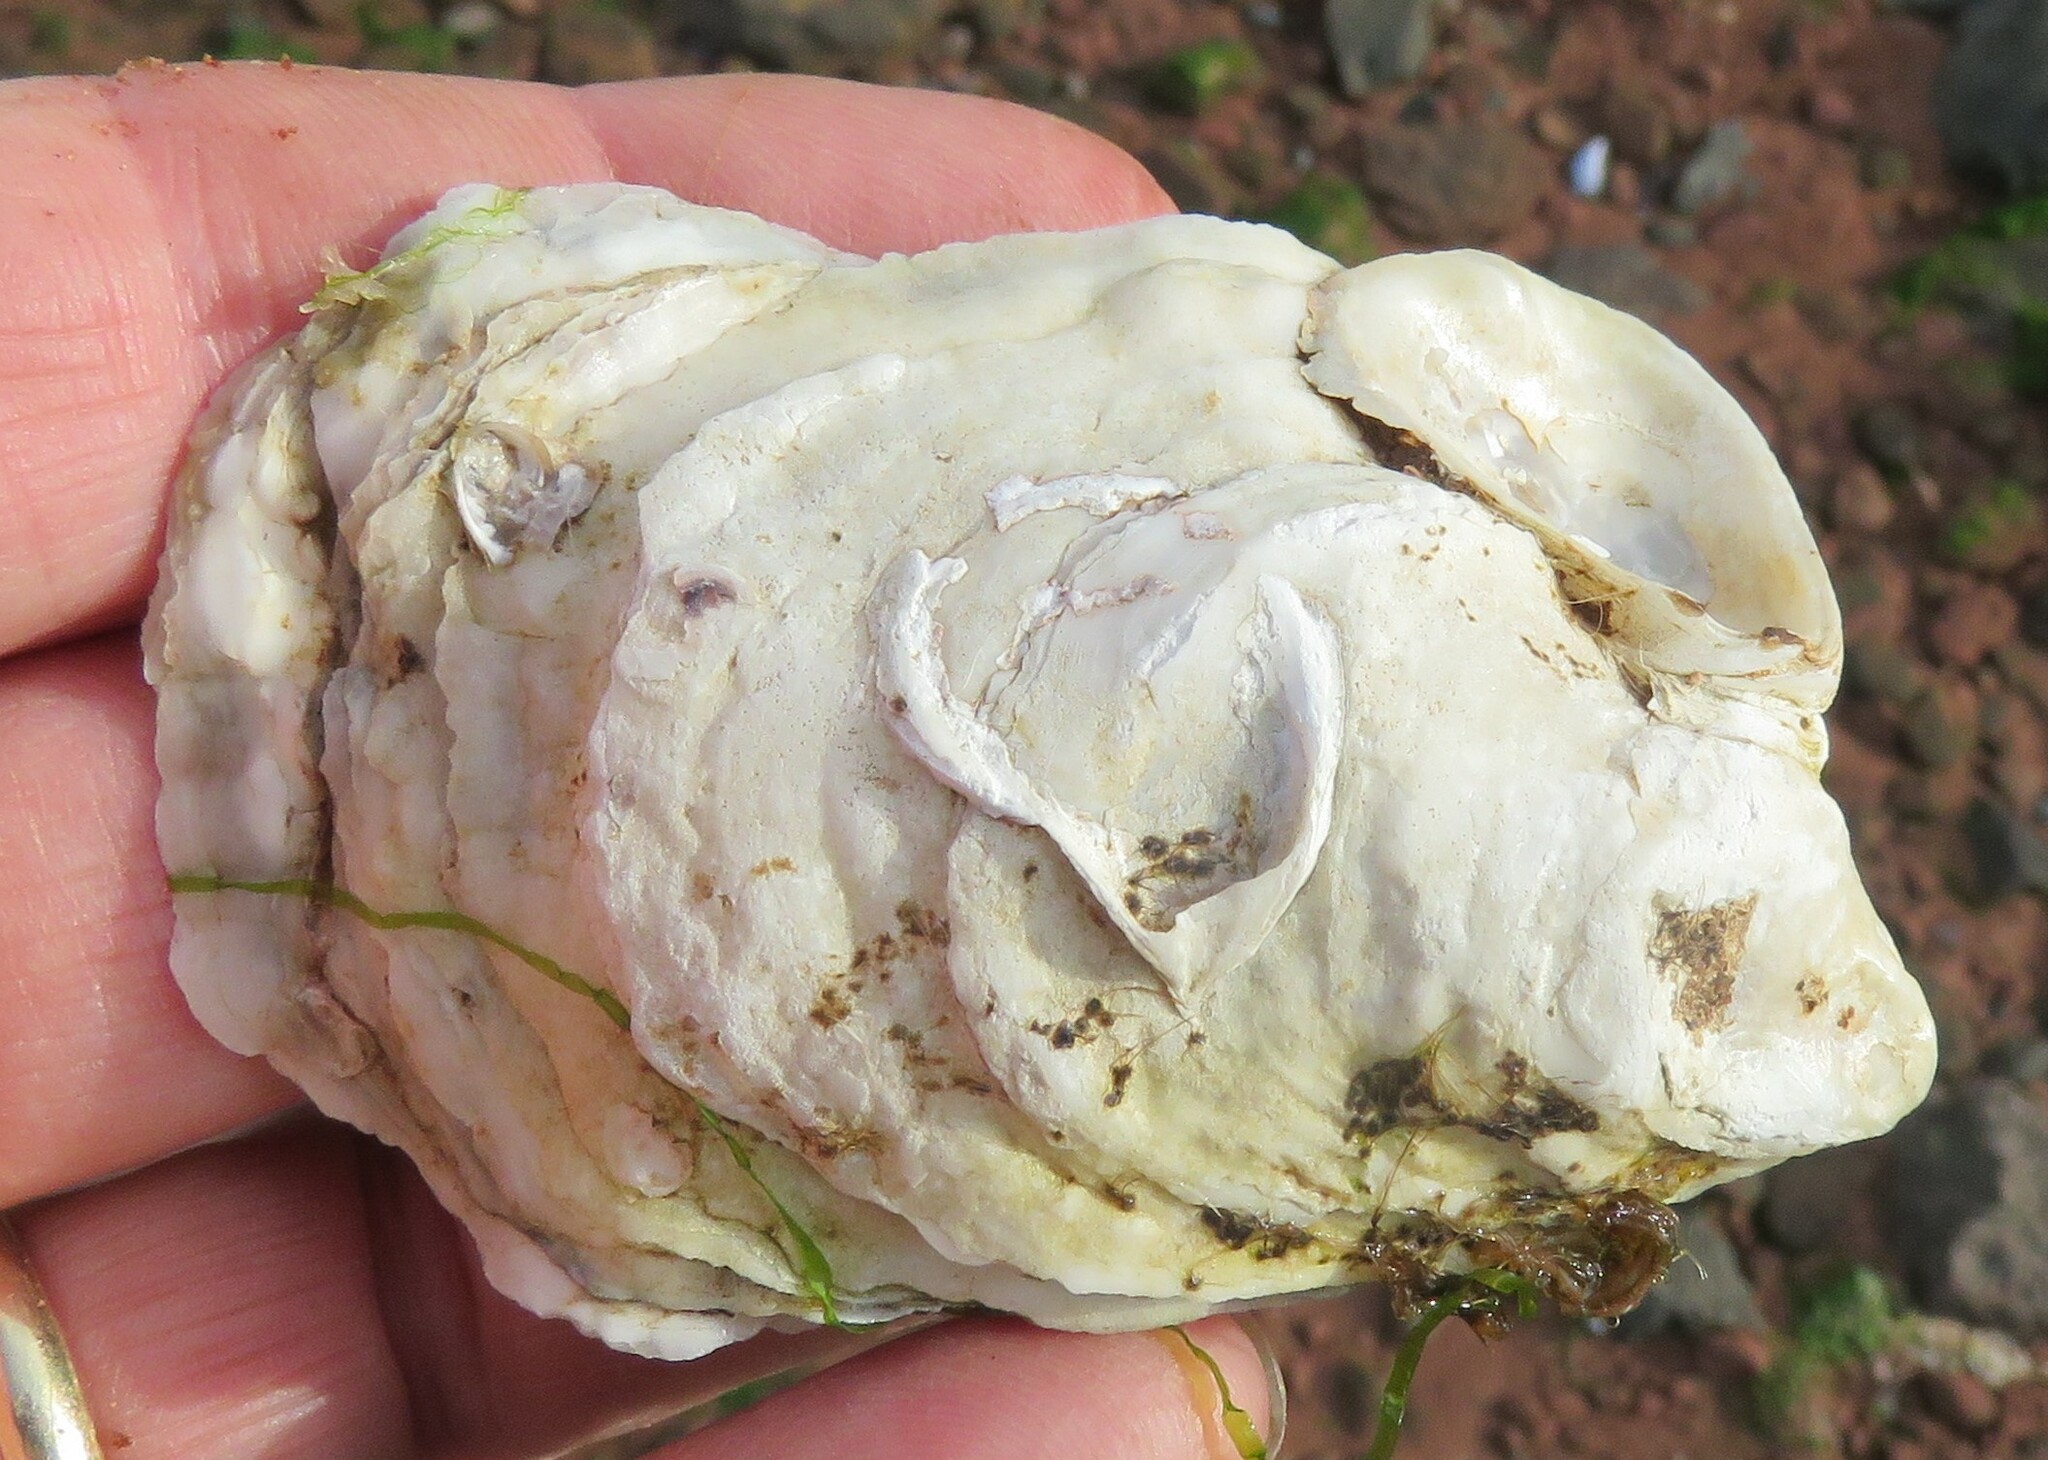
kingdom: Animalia
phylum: Mollusca
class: Bivalvia
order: Ostreida
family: Ostreidae
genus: Crassostrea
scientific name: Crassostrea virginica
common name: American oyster
